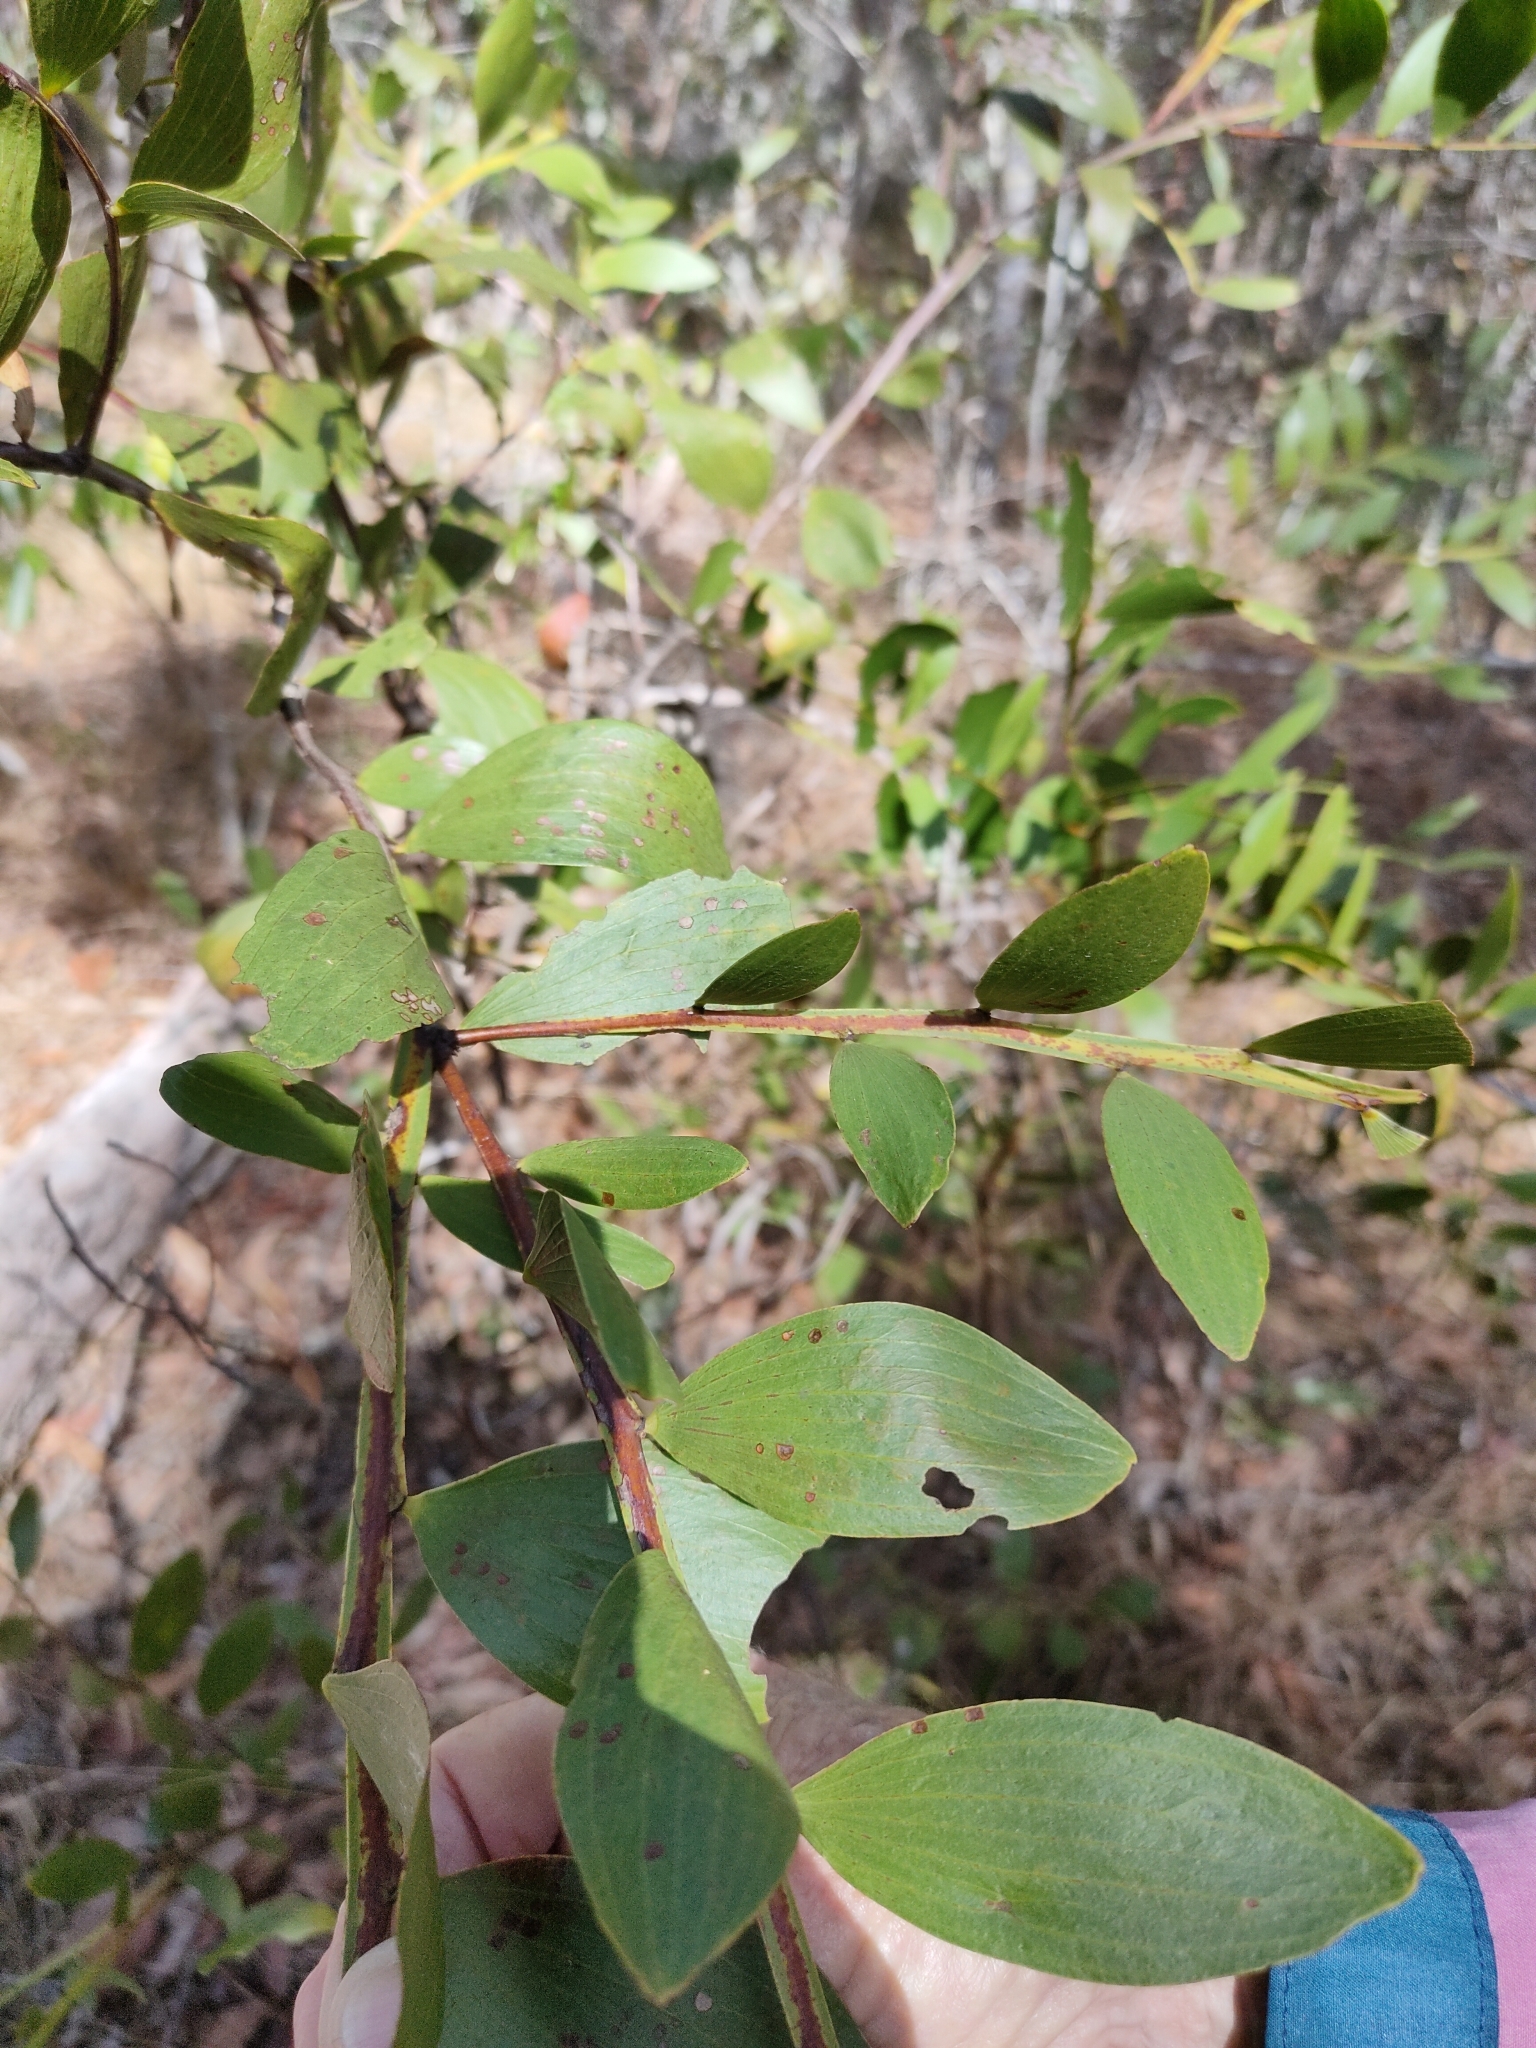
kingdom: Plantae
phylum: Tracheophyta
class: Magnoliopsida
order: Fabales
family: Fabaceae
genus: Acacia
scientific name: Acacia complanata
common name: Flat-stemmed wattle
